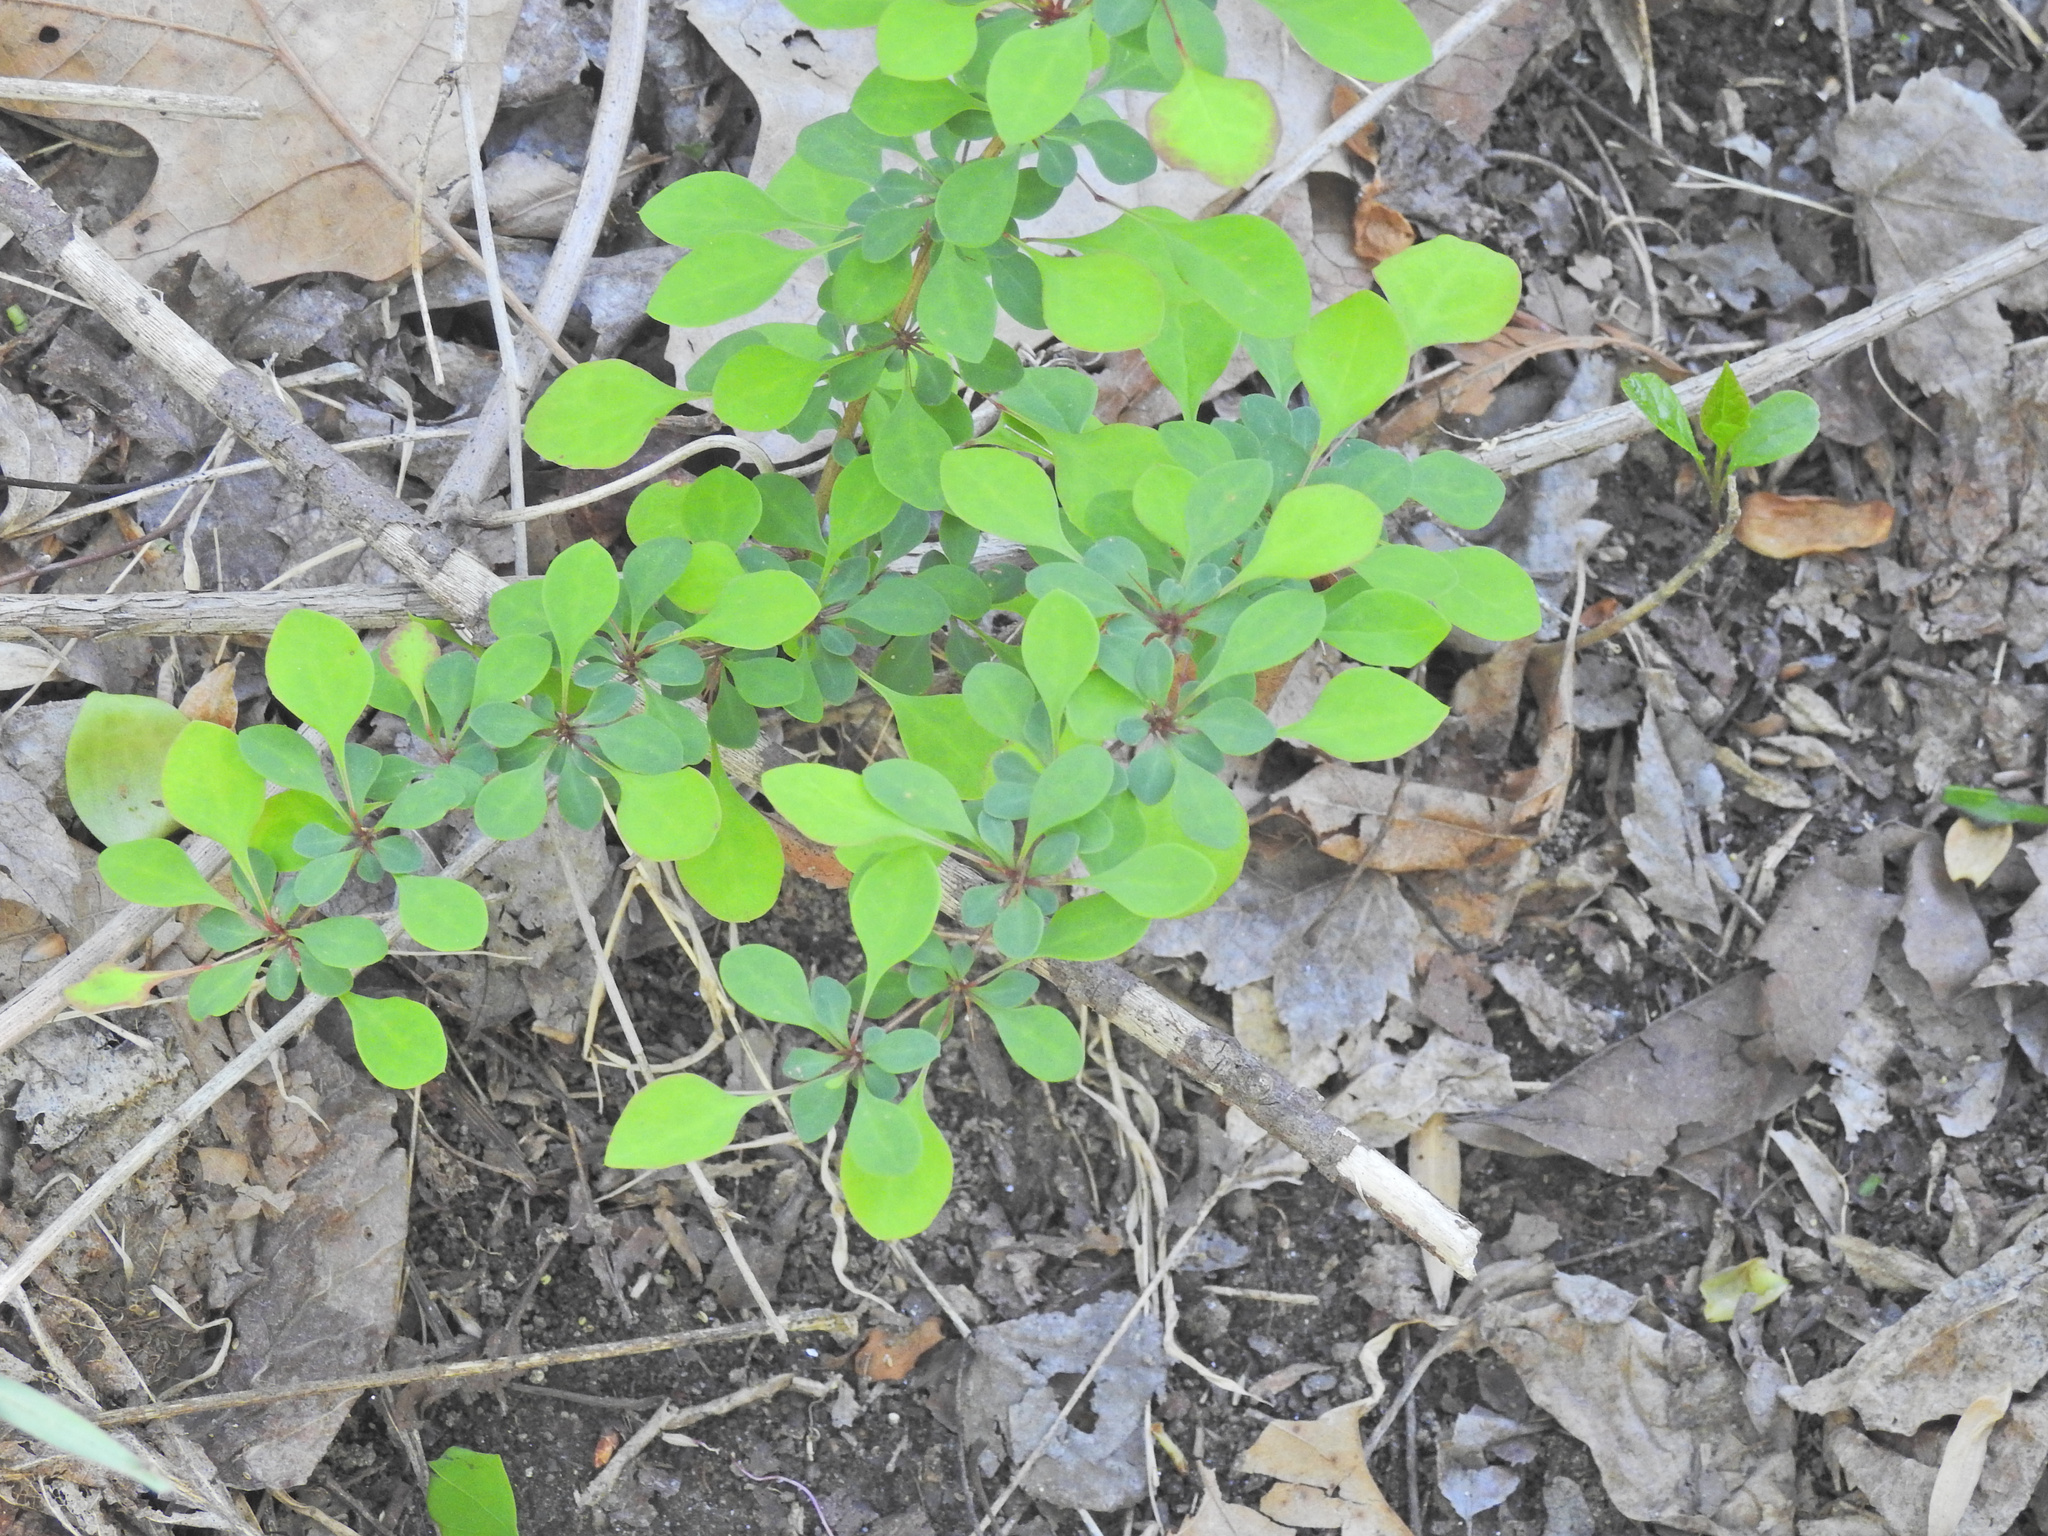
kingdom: Plantae
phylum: Tracheophyta
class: Magnoliopsida
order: Ranunculales
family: Berberidaceae
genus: Berberis
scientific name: Berberis thunbergii
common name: Japanese barberry
